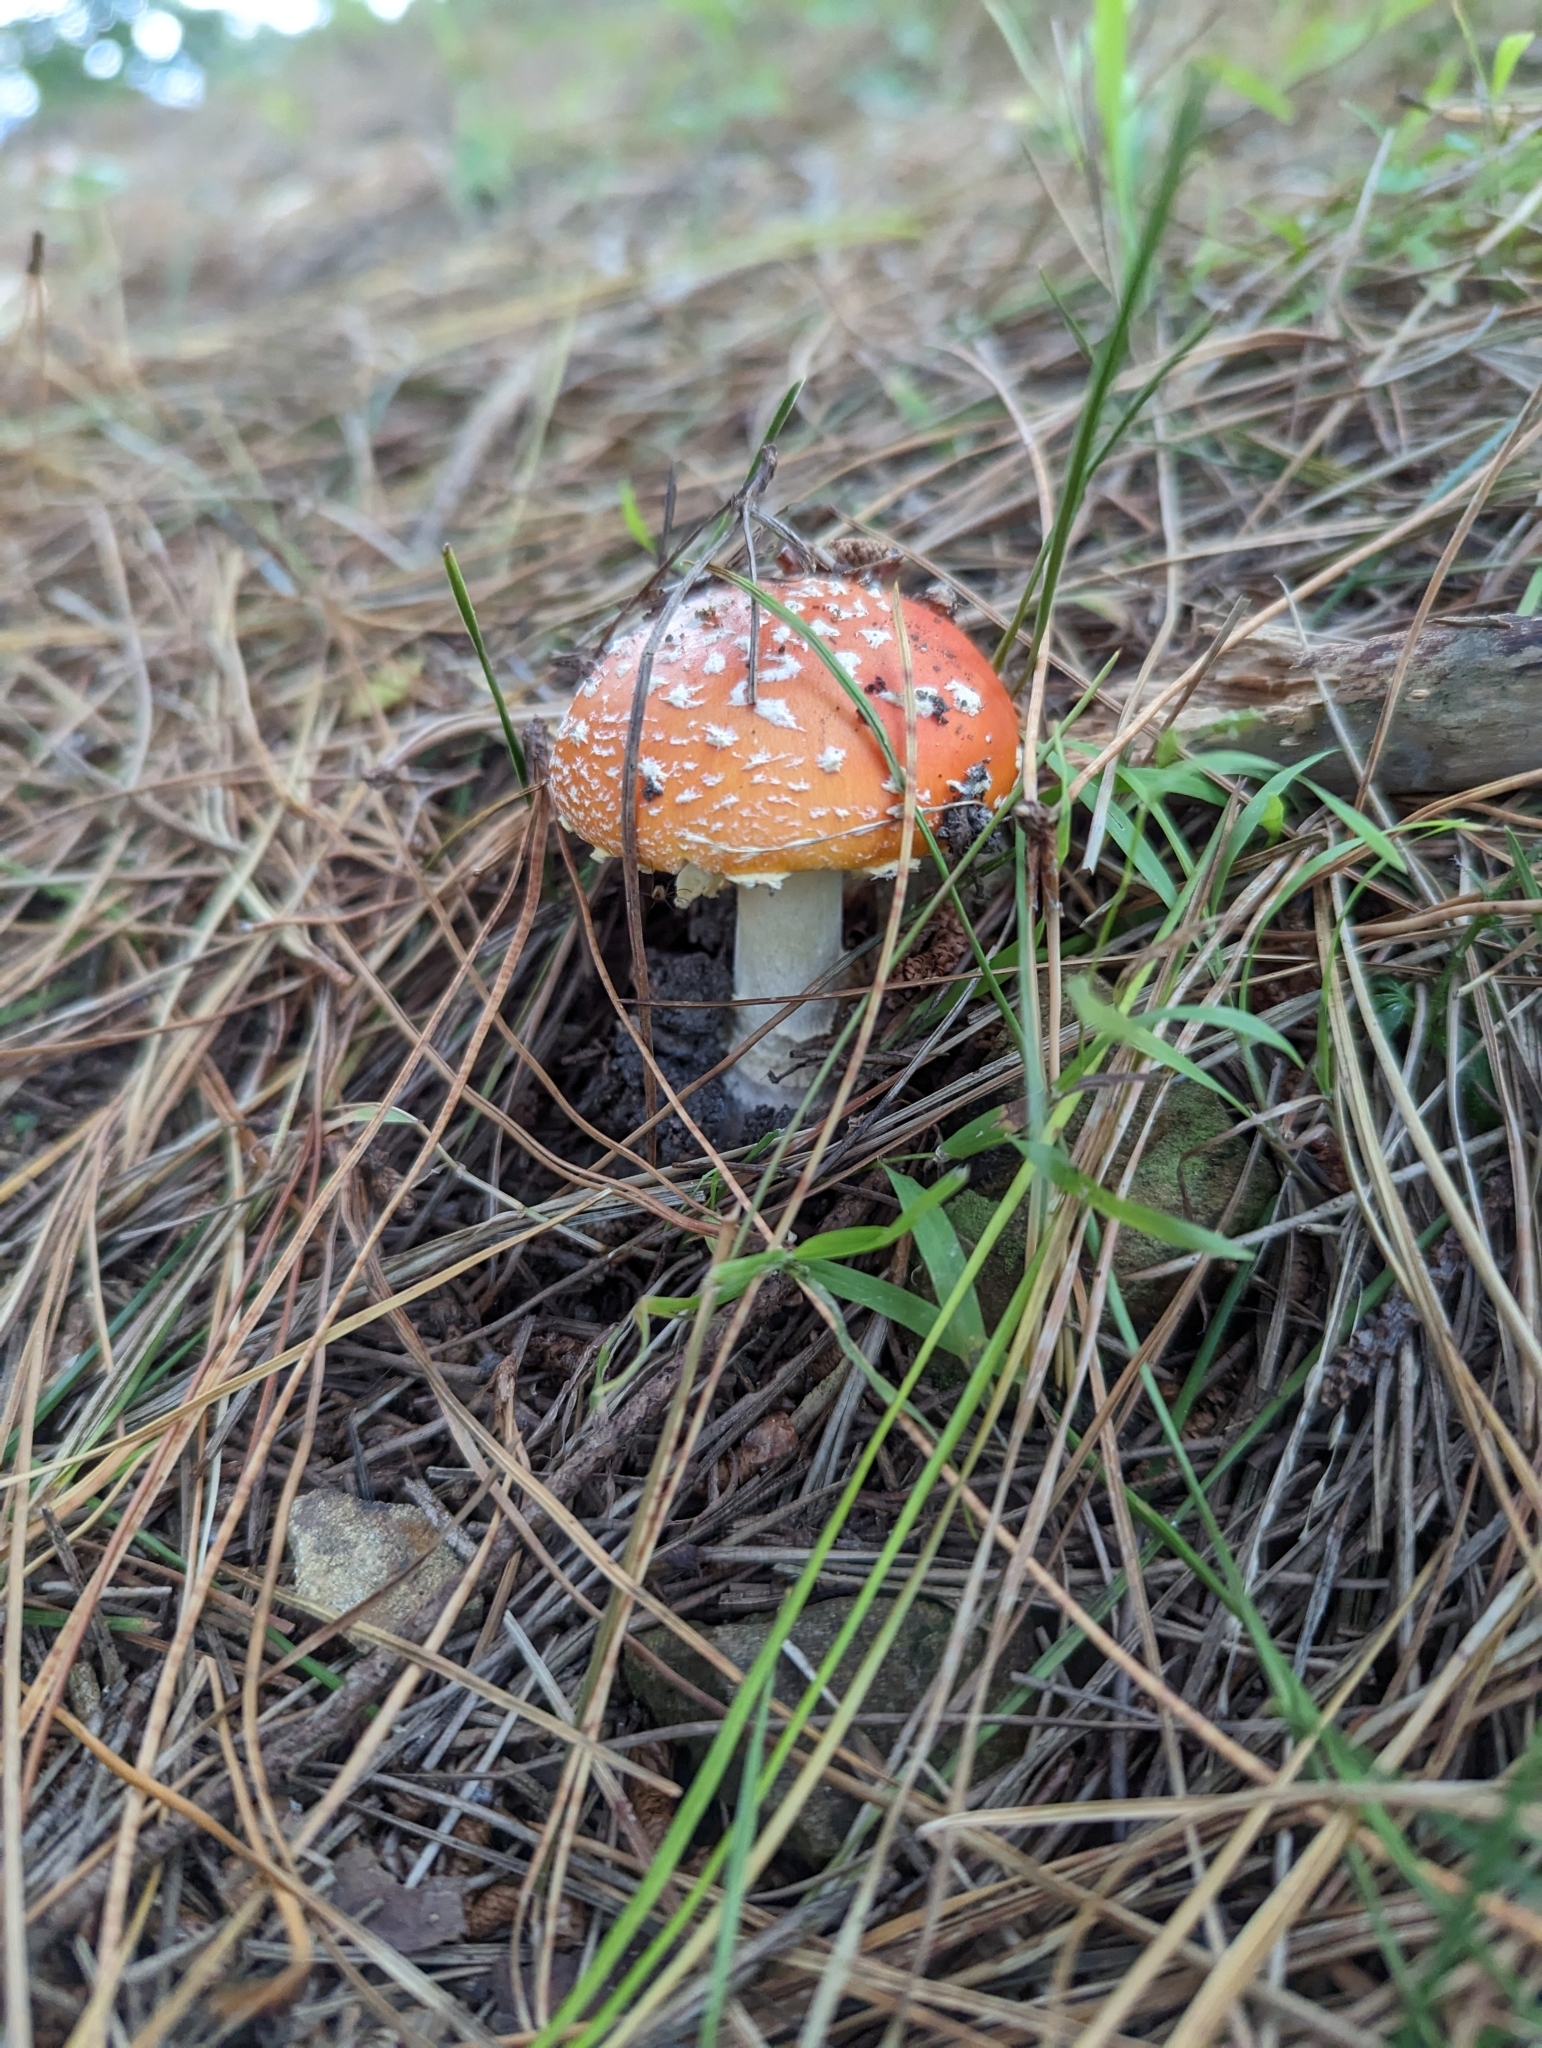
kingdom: Fungi
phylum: Basidiomycota
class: Agaricomycetes
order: Agaricales
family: Amanitaceae
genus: Amanita
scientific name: Amanita muscaria
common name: Fly agaric
